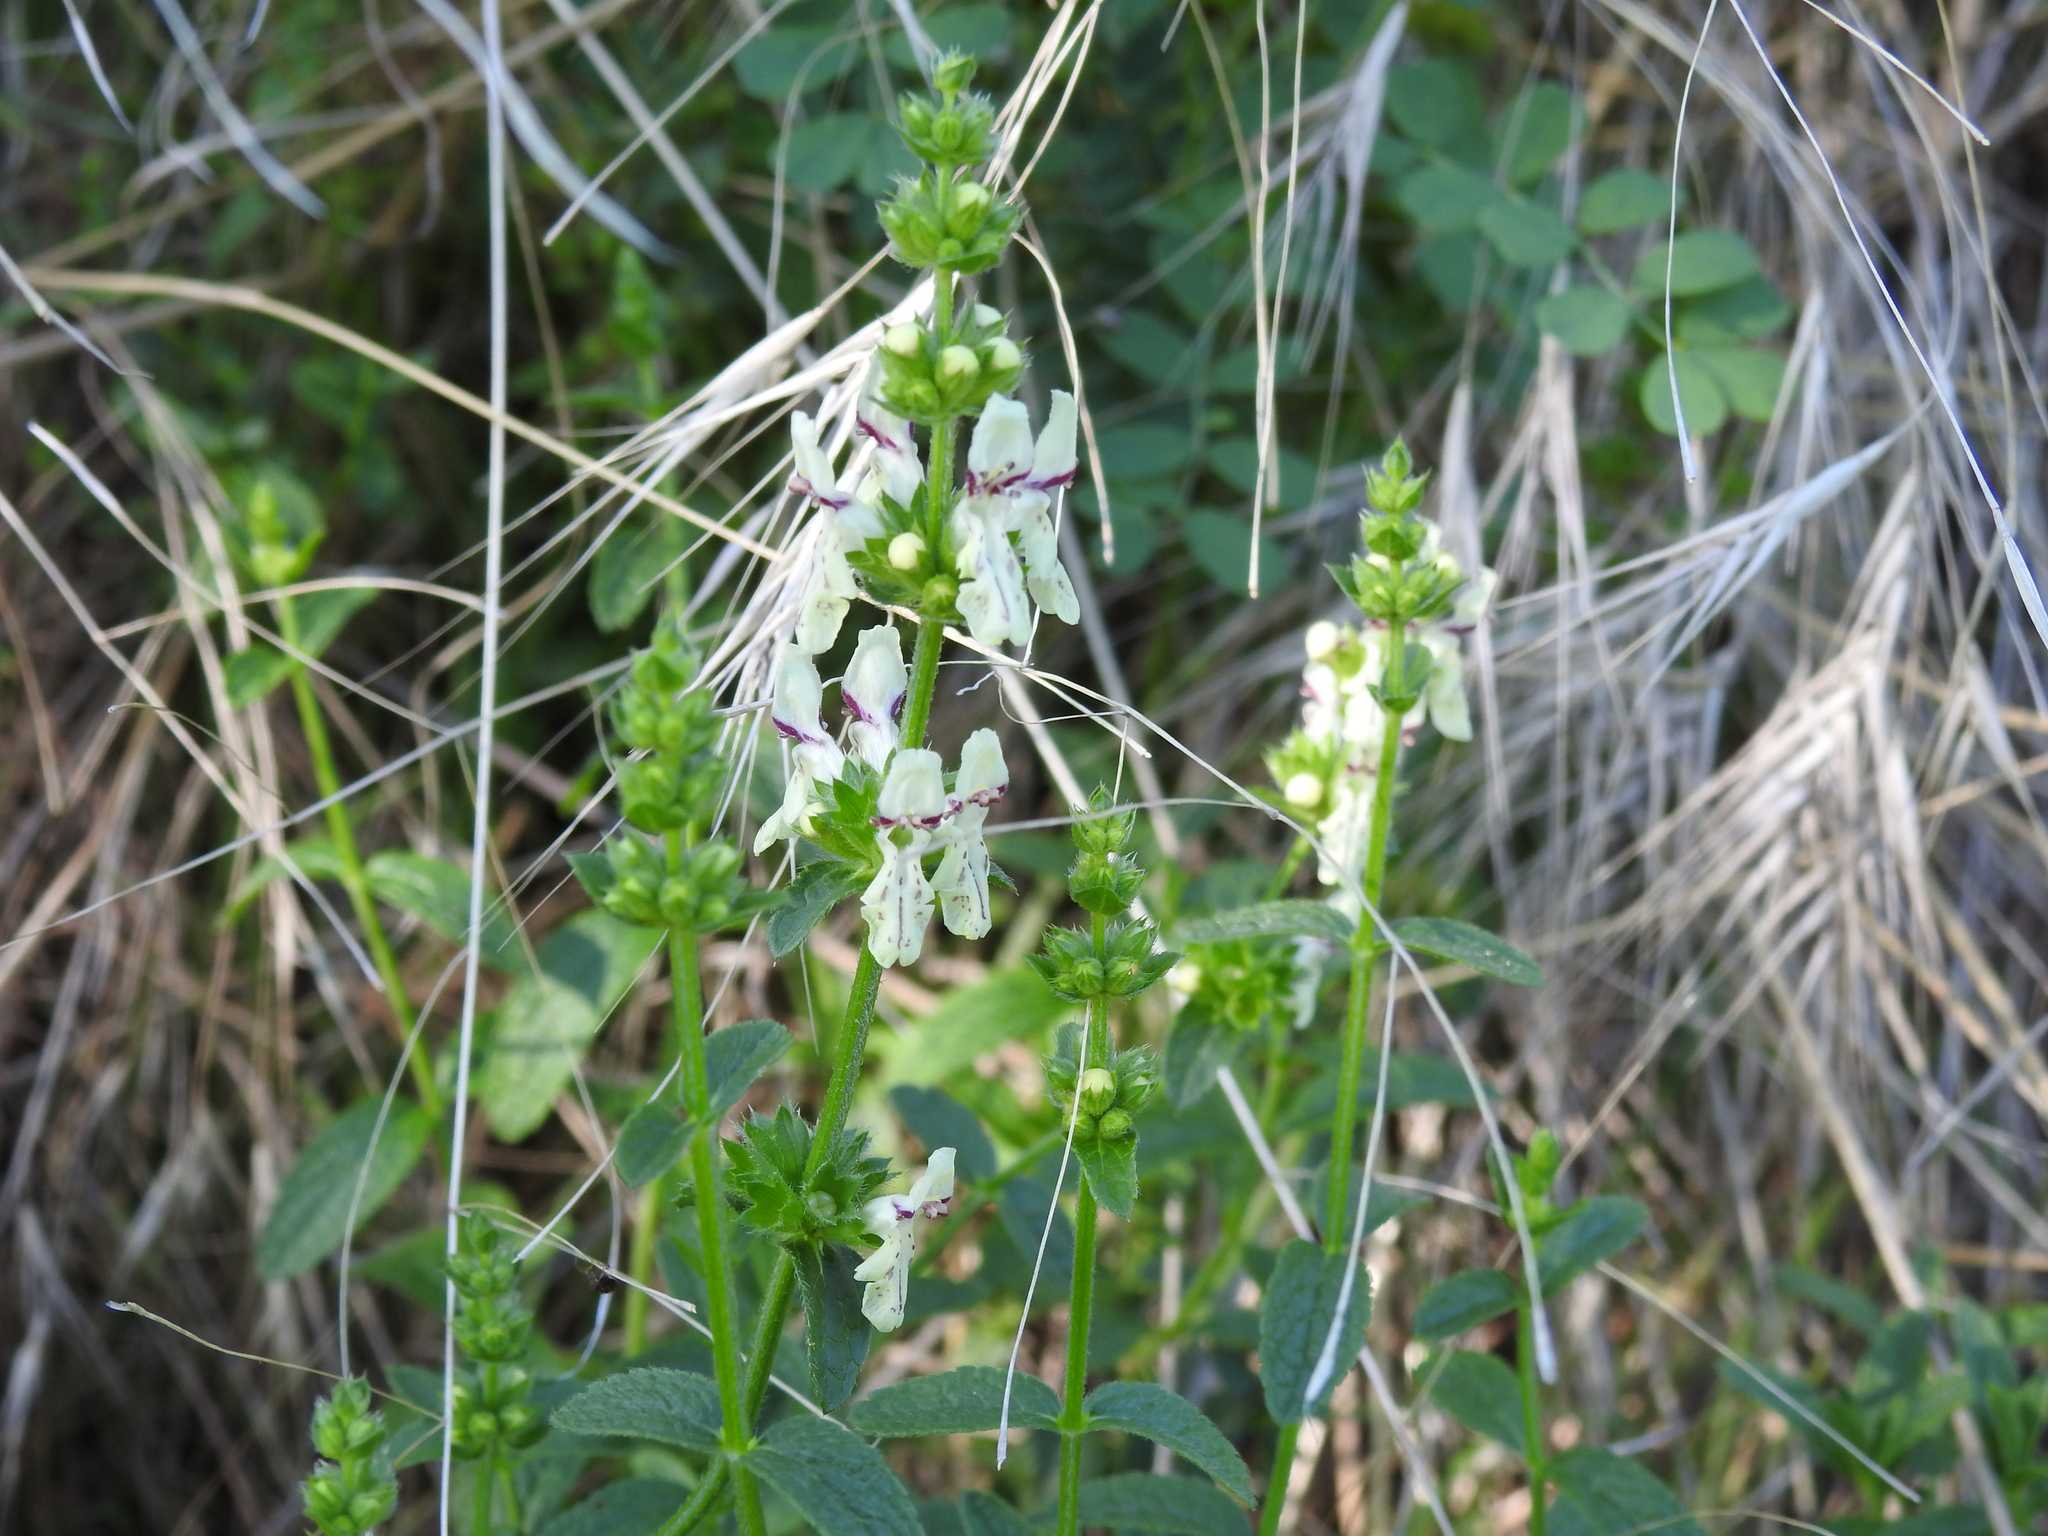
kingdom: Plantae
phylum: Tracheophyta
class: Magnoliopsida
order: Lamiales
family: Lamiaceae
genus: Stachys
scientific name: Stachys recta
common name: Perennial yellow-woundwort
